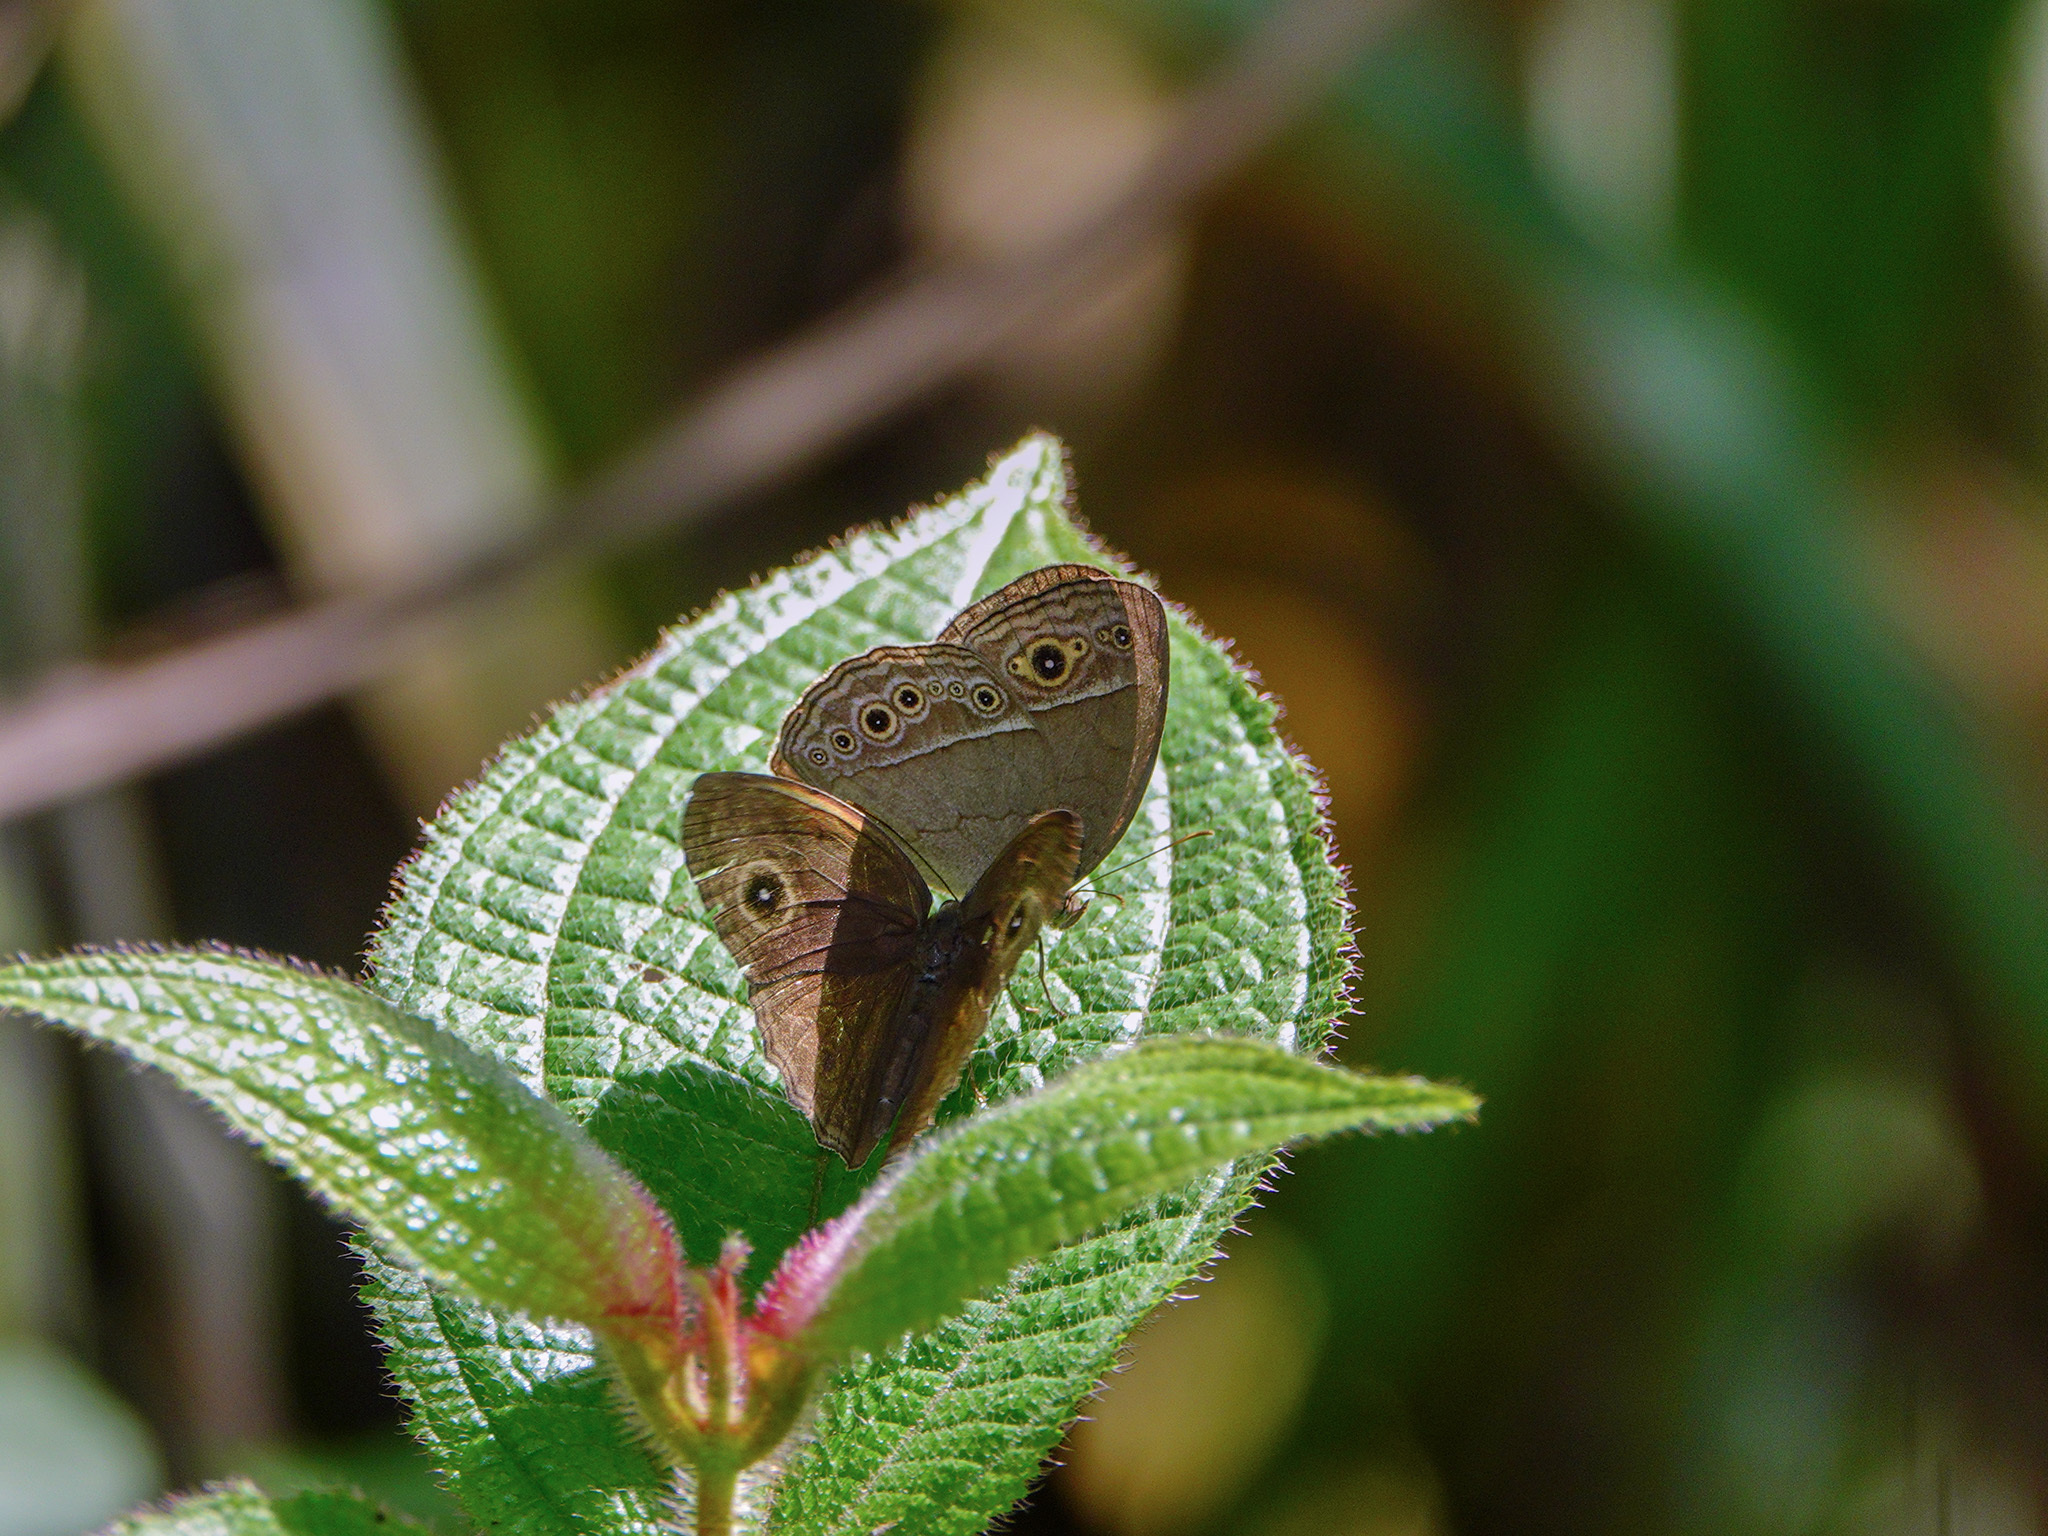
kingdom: Animalia
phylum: Arthropoda
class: Insecta
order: Lepidoptera
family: Nymphalidae
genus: Mycalesis
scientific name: Mycalesis perseoides
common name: Burmese bushbrown
